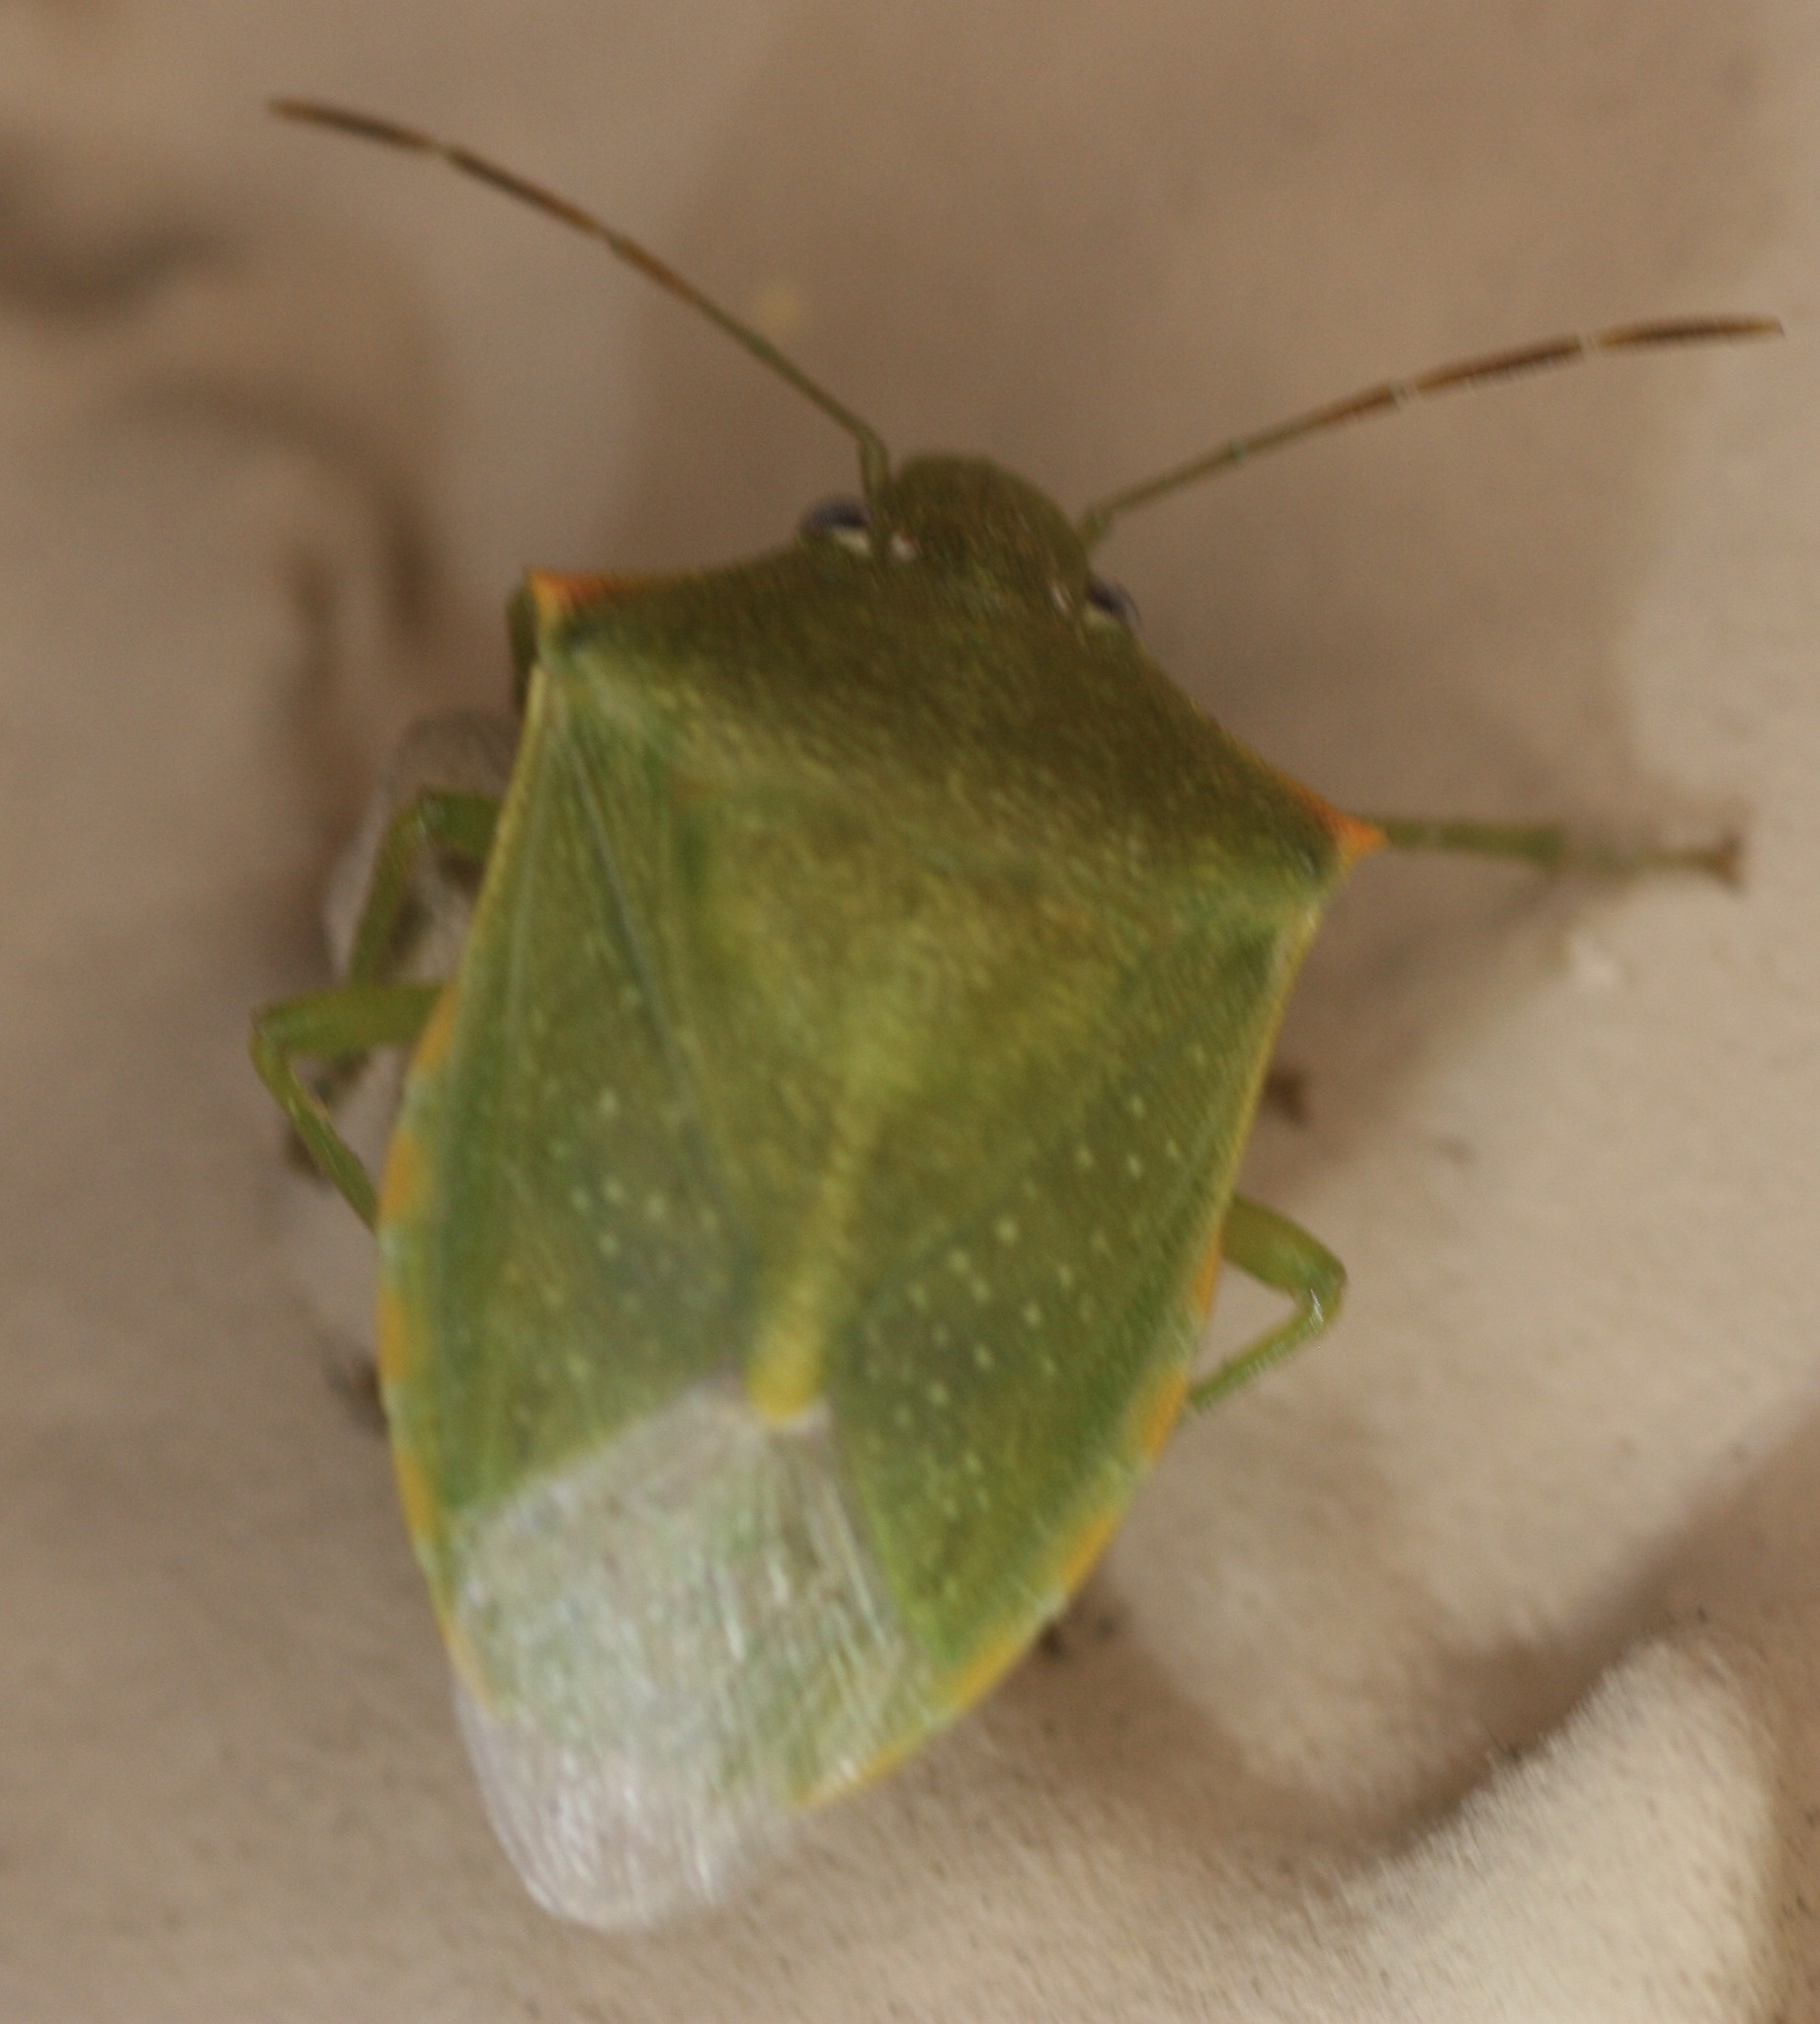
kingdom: Animalia
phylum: Arthropoda
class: Insecta
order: Hemiptera
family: Pentatomidae
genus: Thyanta
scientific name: Thyanta accerra
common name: Stink bug
